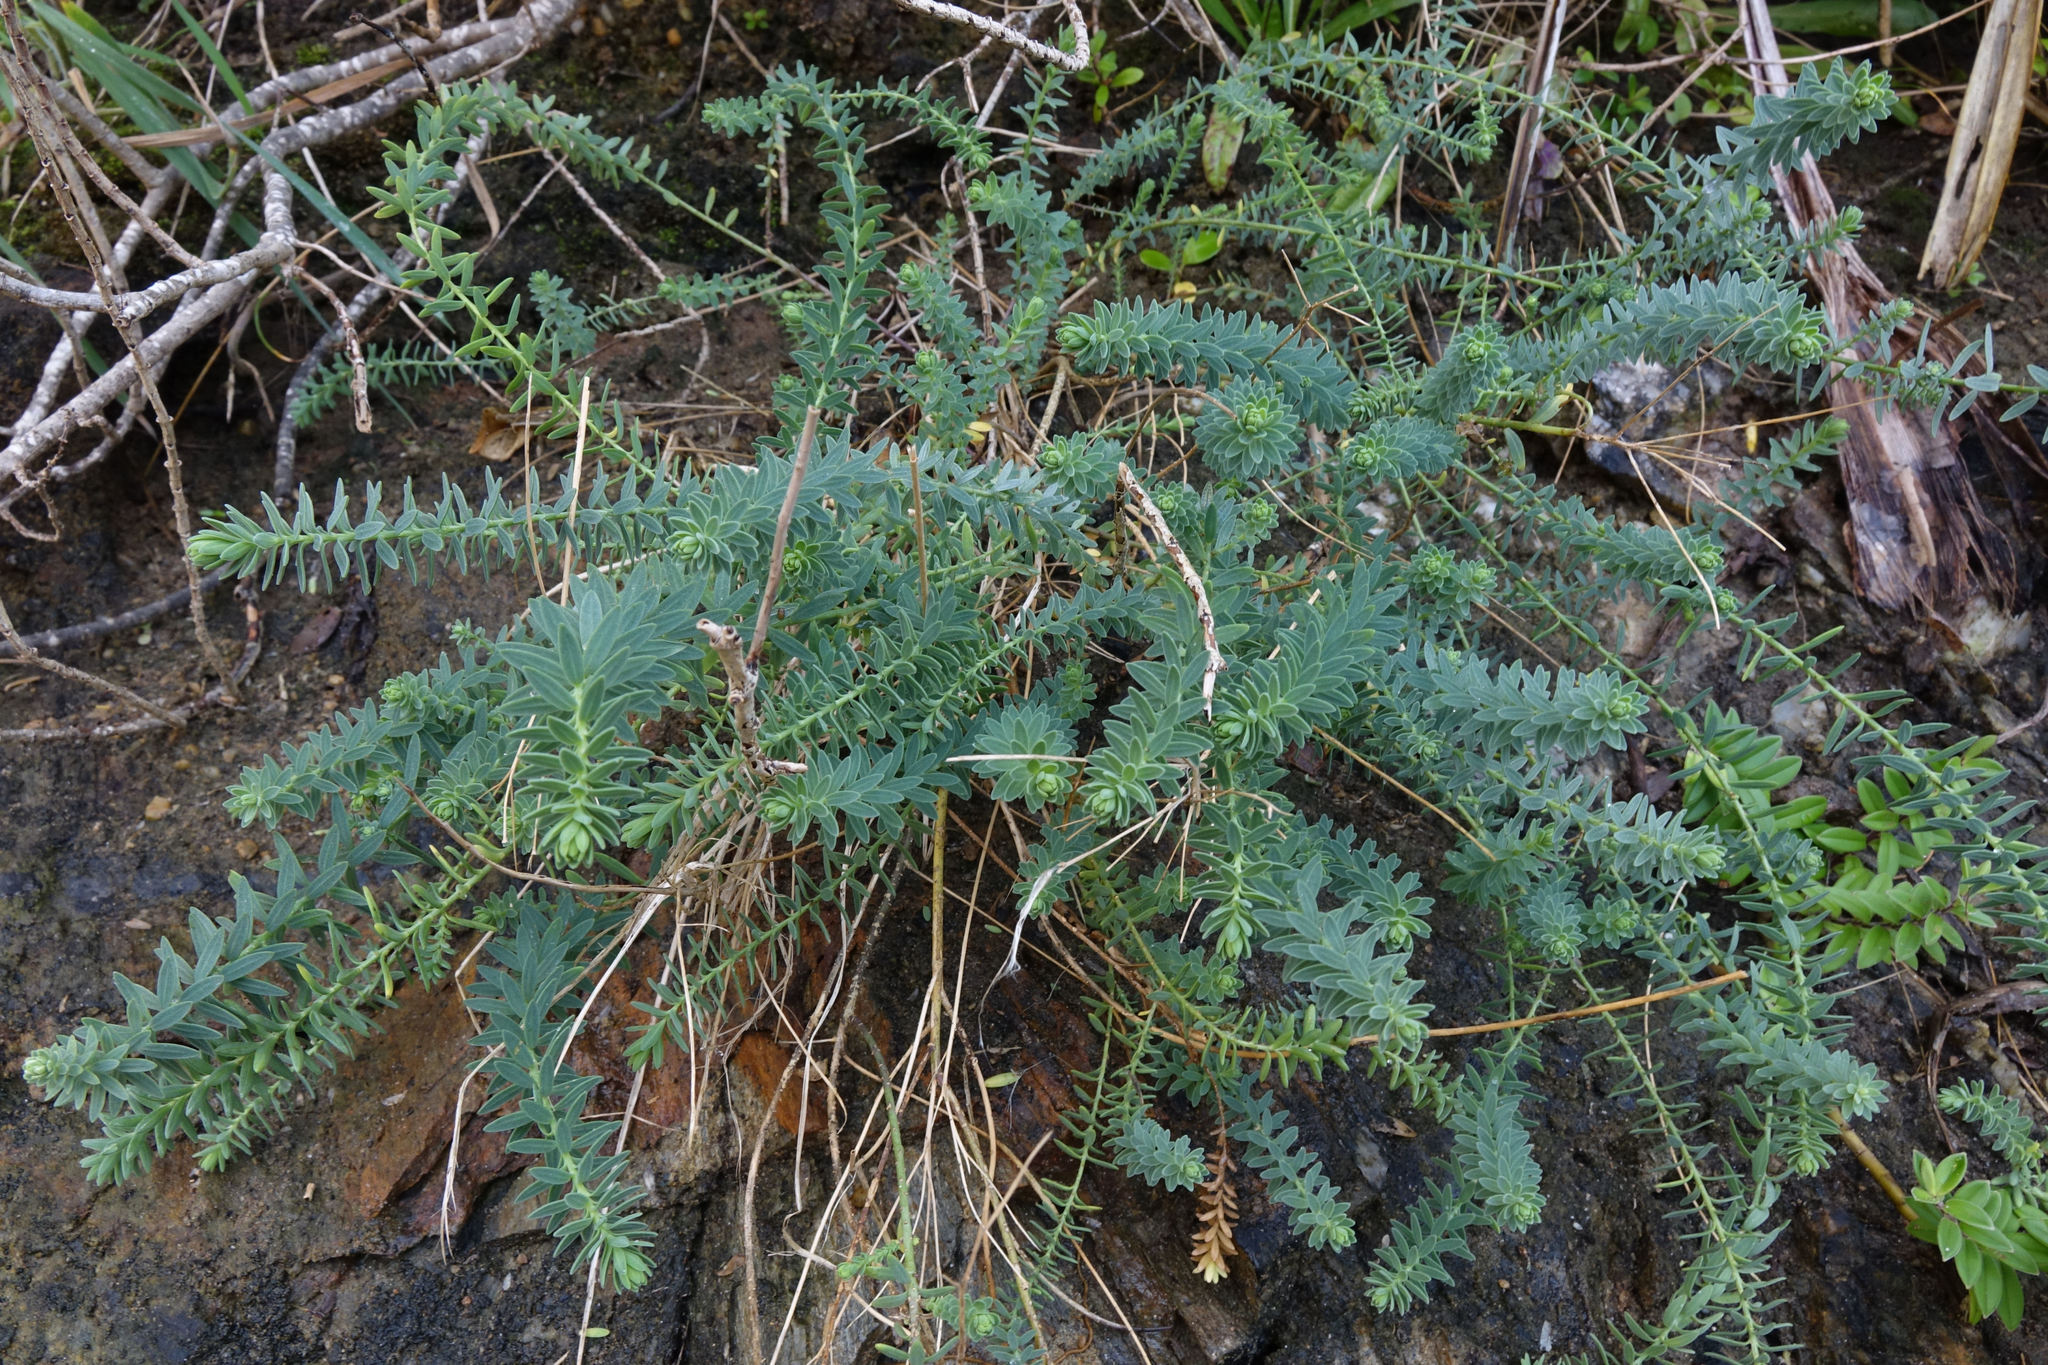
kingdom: Plantae
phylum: Tracheophyta
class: Magnoliopsida
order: Malpighiales
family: Linaceae
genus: Linum
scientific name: Linum monogynum
